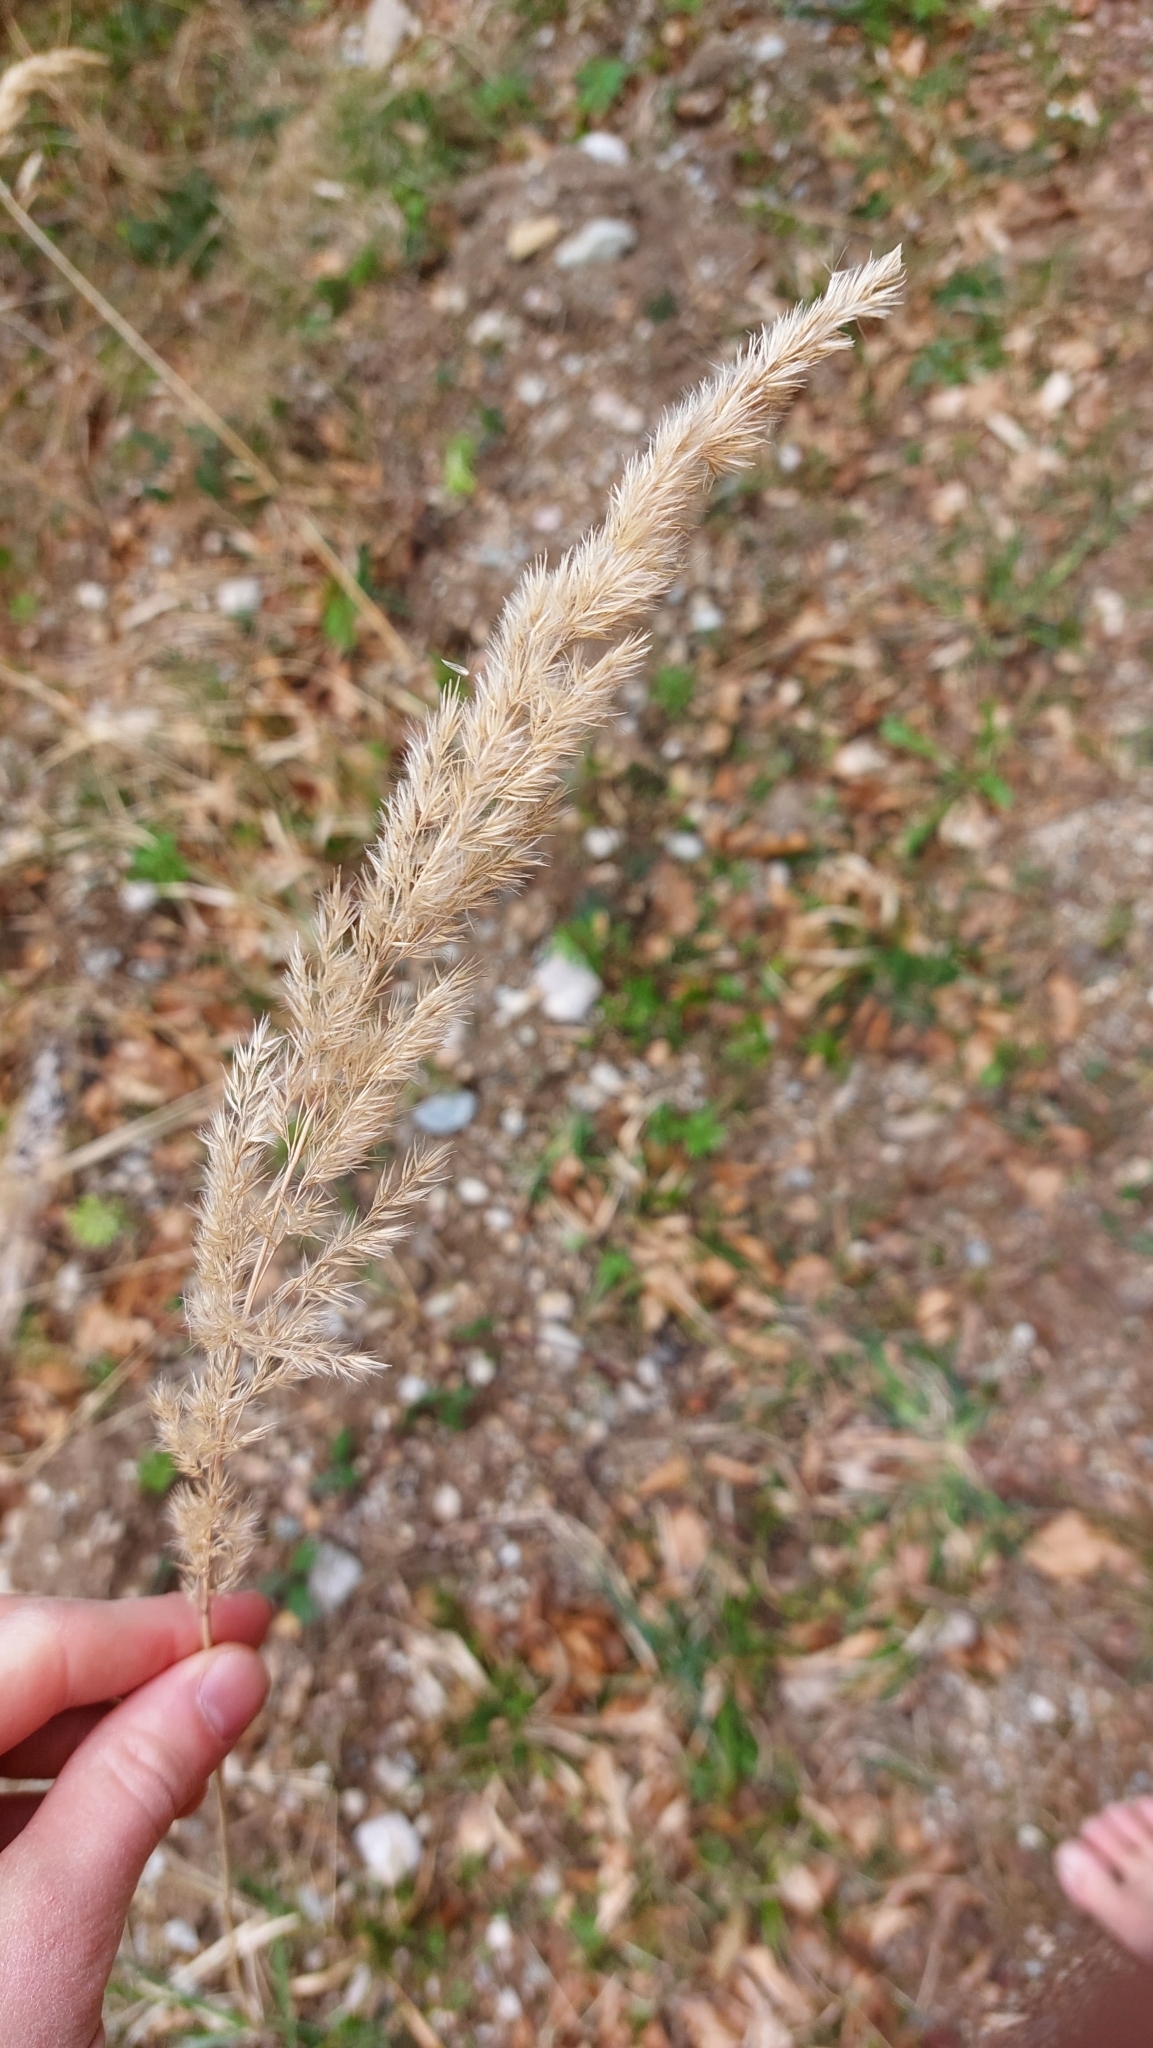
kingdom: Plantae
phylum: Tracheophyta
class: Liliopsida
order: Poales
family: Poaceae
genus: Calamagrostis
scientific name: Calamagrostis epigejos
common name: Wood small-reed
